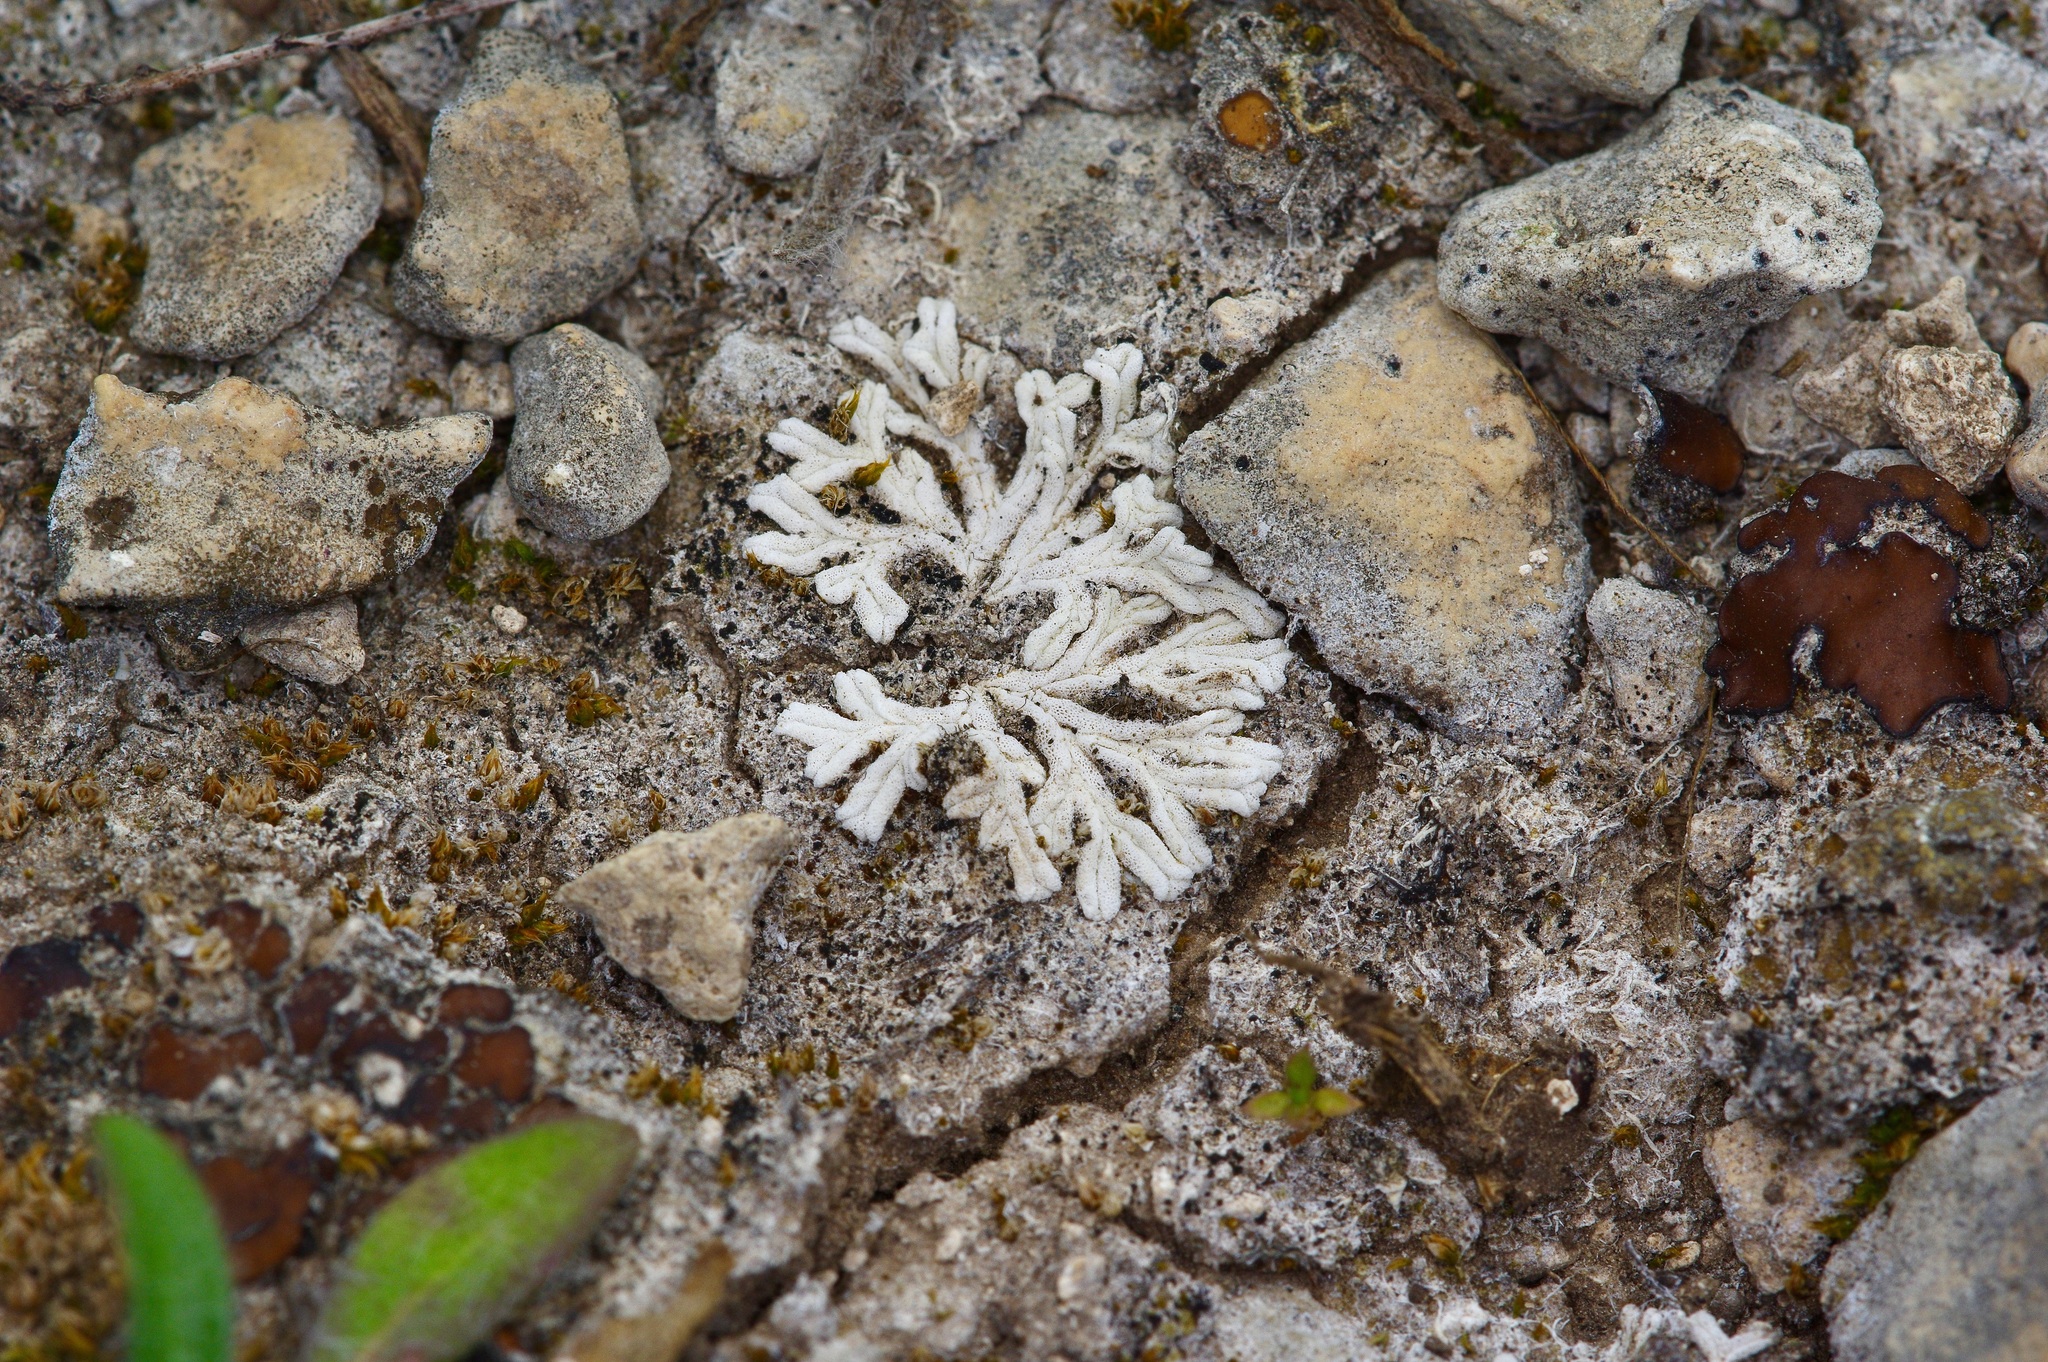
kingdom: Plantae
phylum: Marchantiophyta
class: Marchantiopsida
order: Marchantiales
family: Ricciaceae
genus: Riccia
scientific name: Riccia albida
